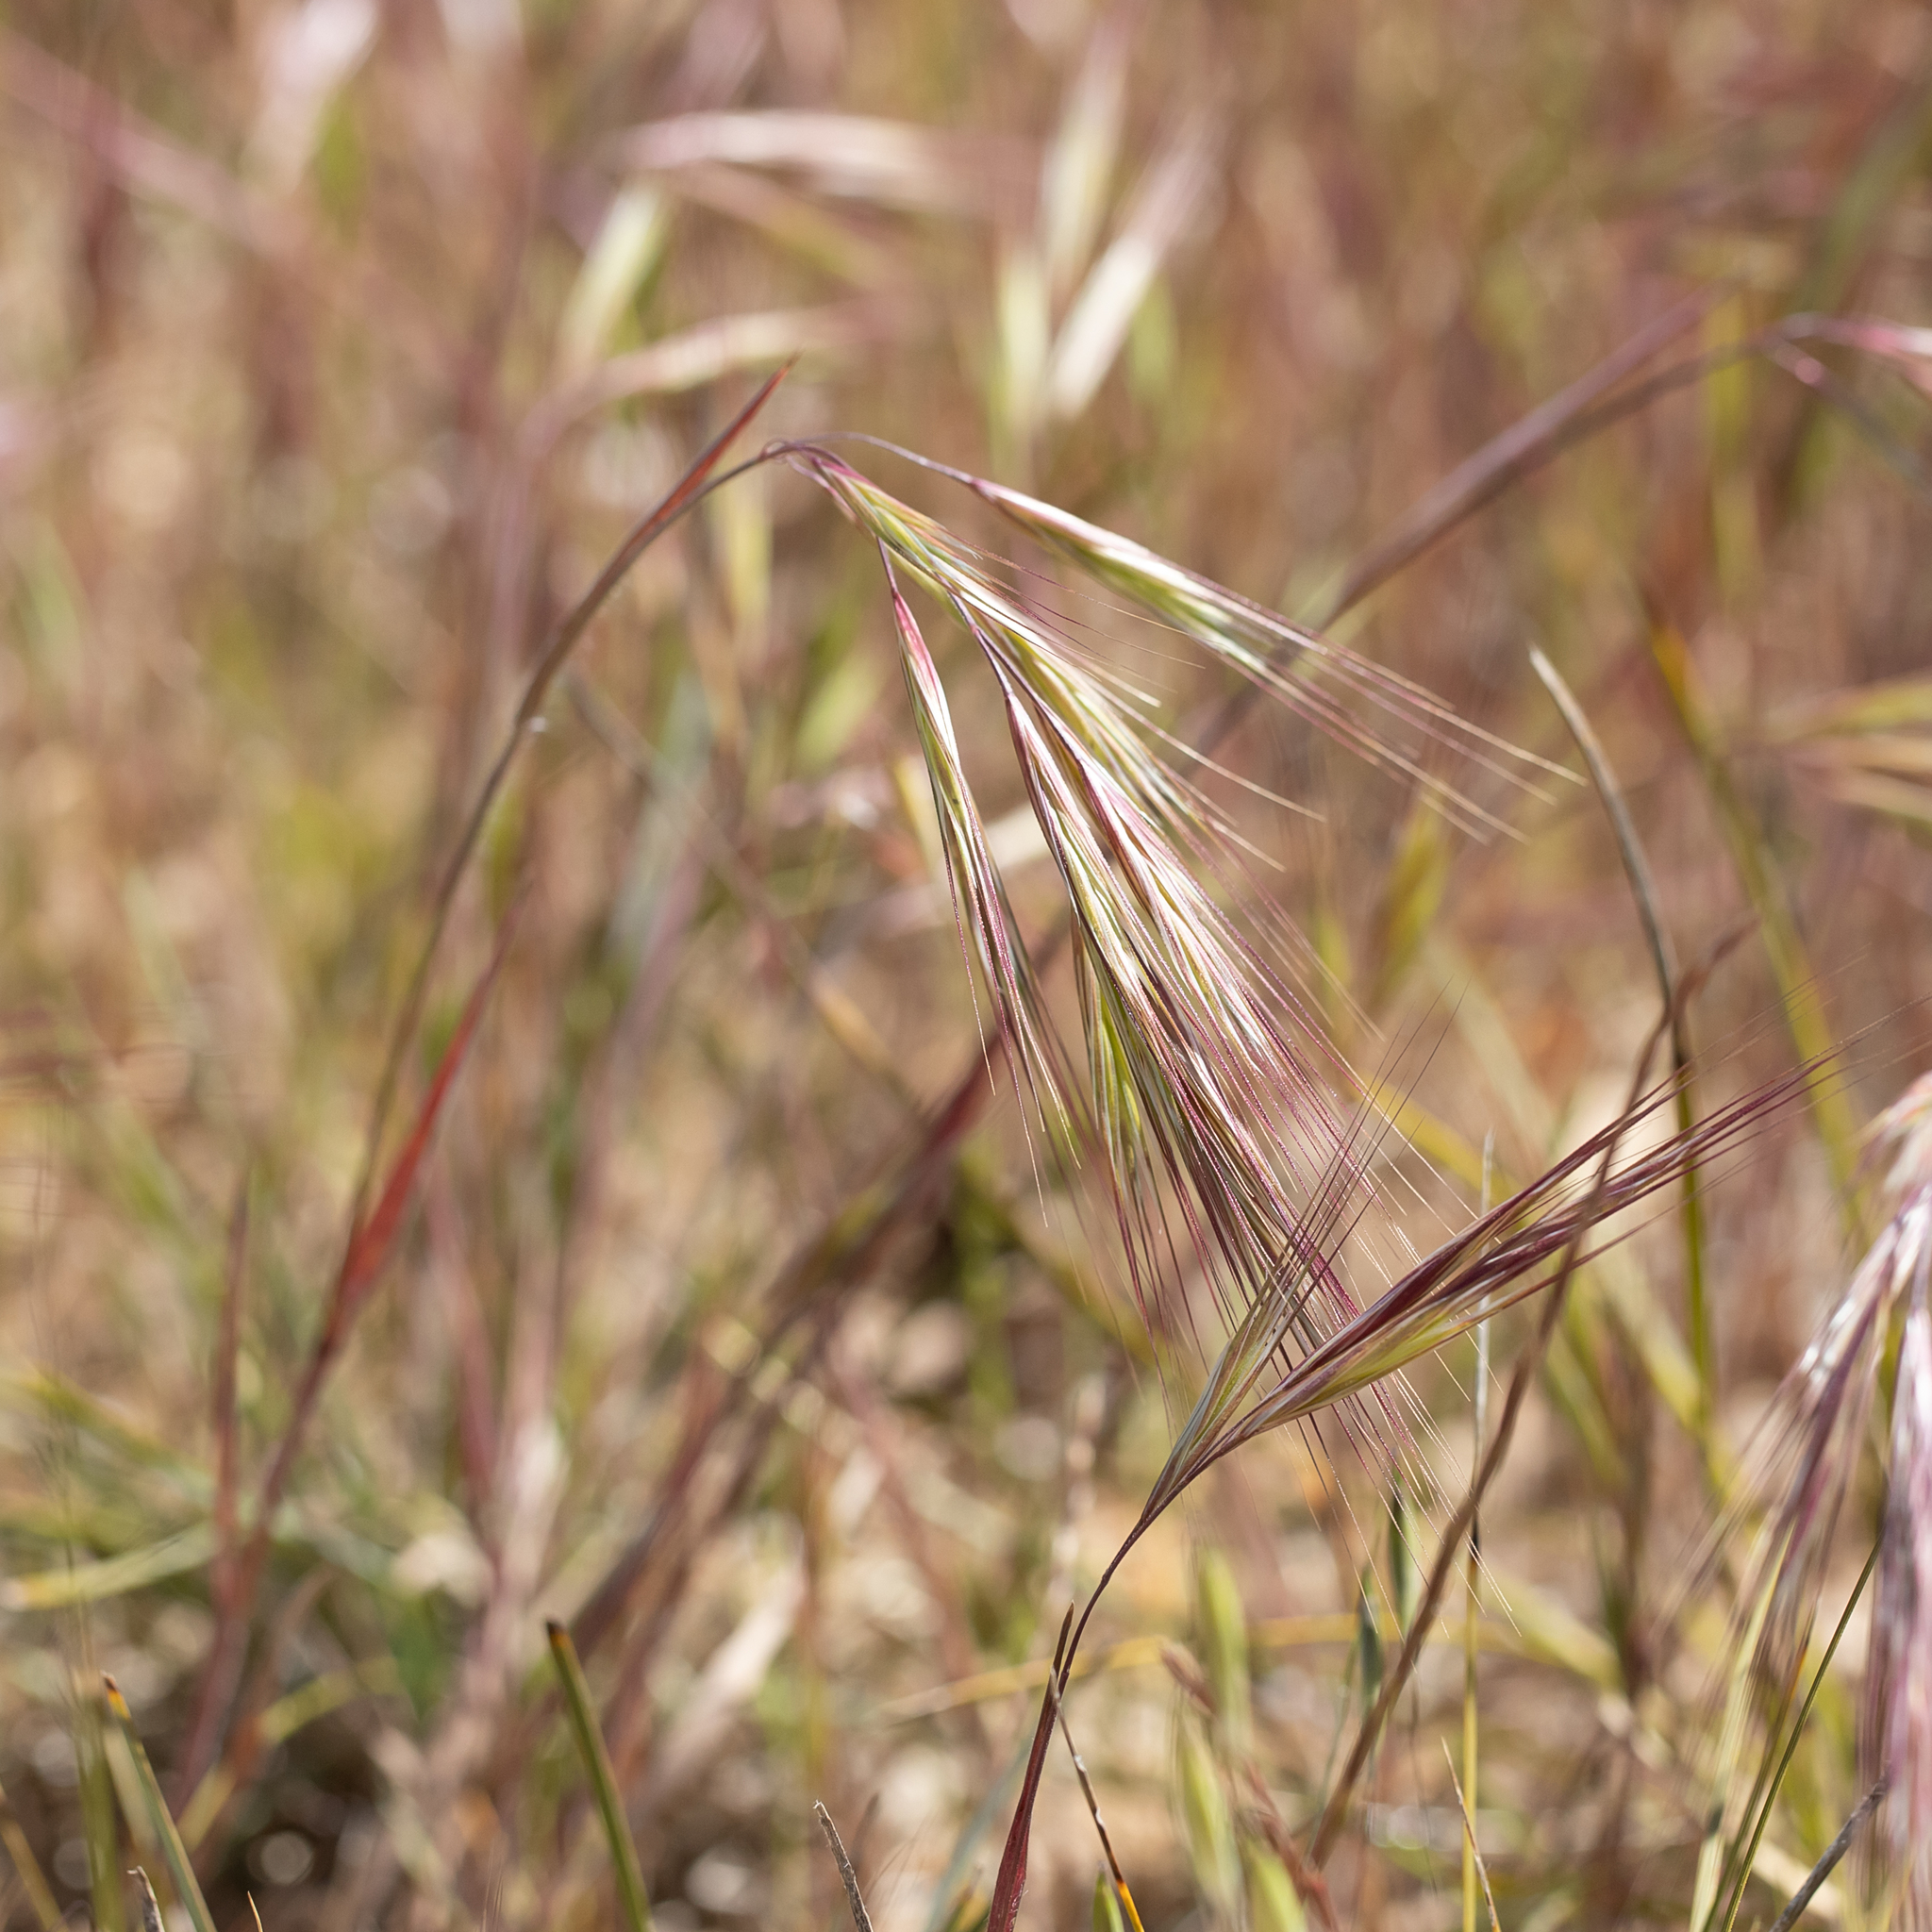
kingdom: Plantae
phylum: Tracheophyta
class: Liliopsida
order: Poales
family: Poaceae
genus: Bromus
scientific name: Bromus madritensis
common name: Compact brome
